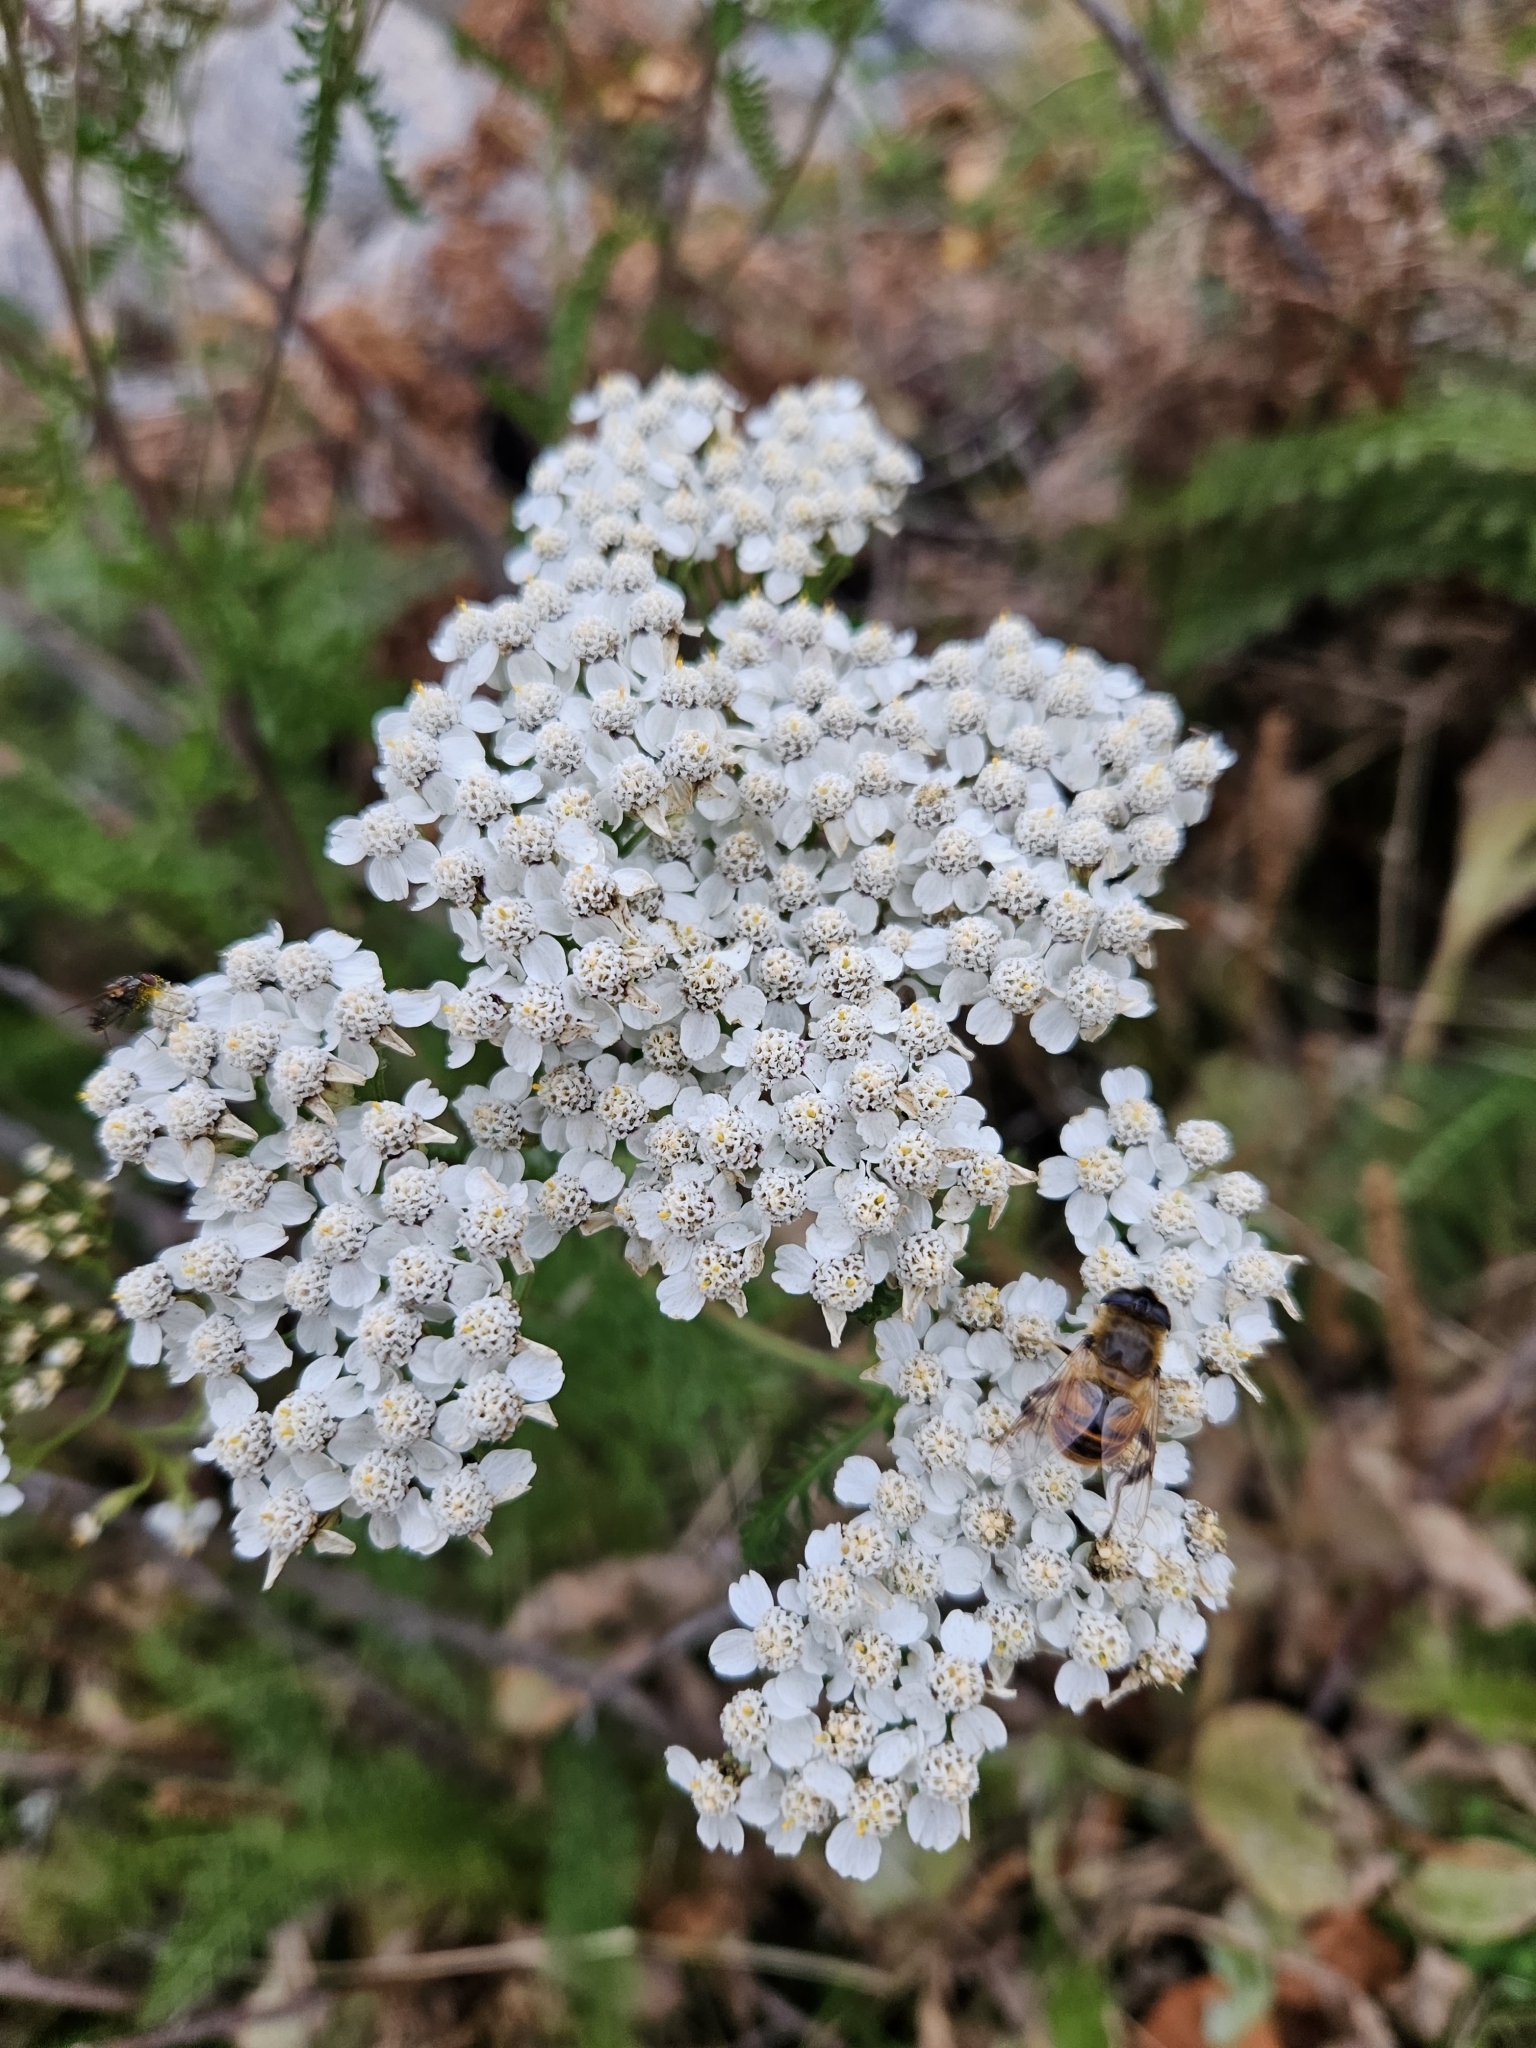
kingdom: Plantae
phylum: Tracheophyta
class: Magnoliopsida
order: Asterales
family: Asteraceae
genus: Achillea
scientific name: Achillea millefolium
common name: Yarrow
